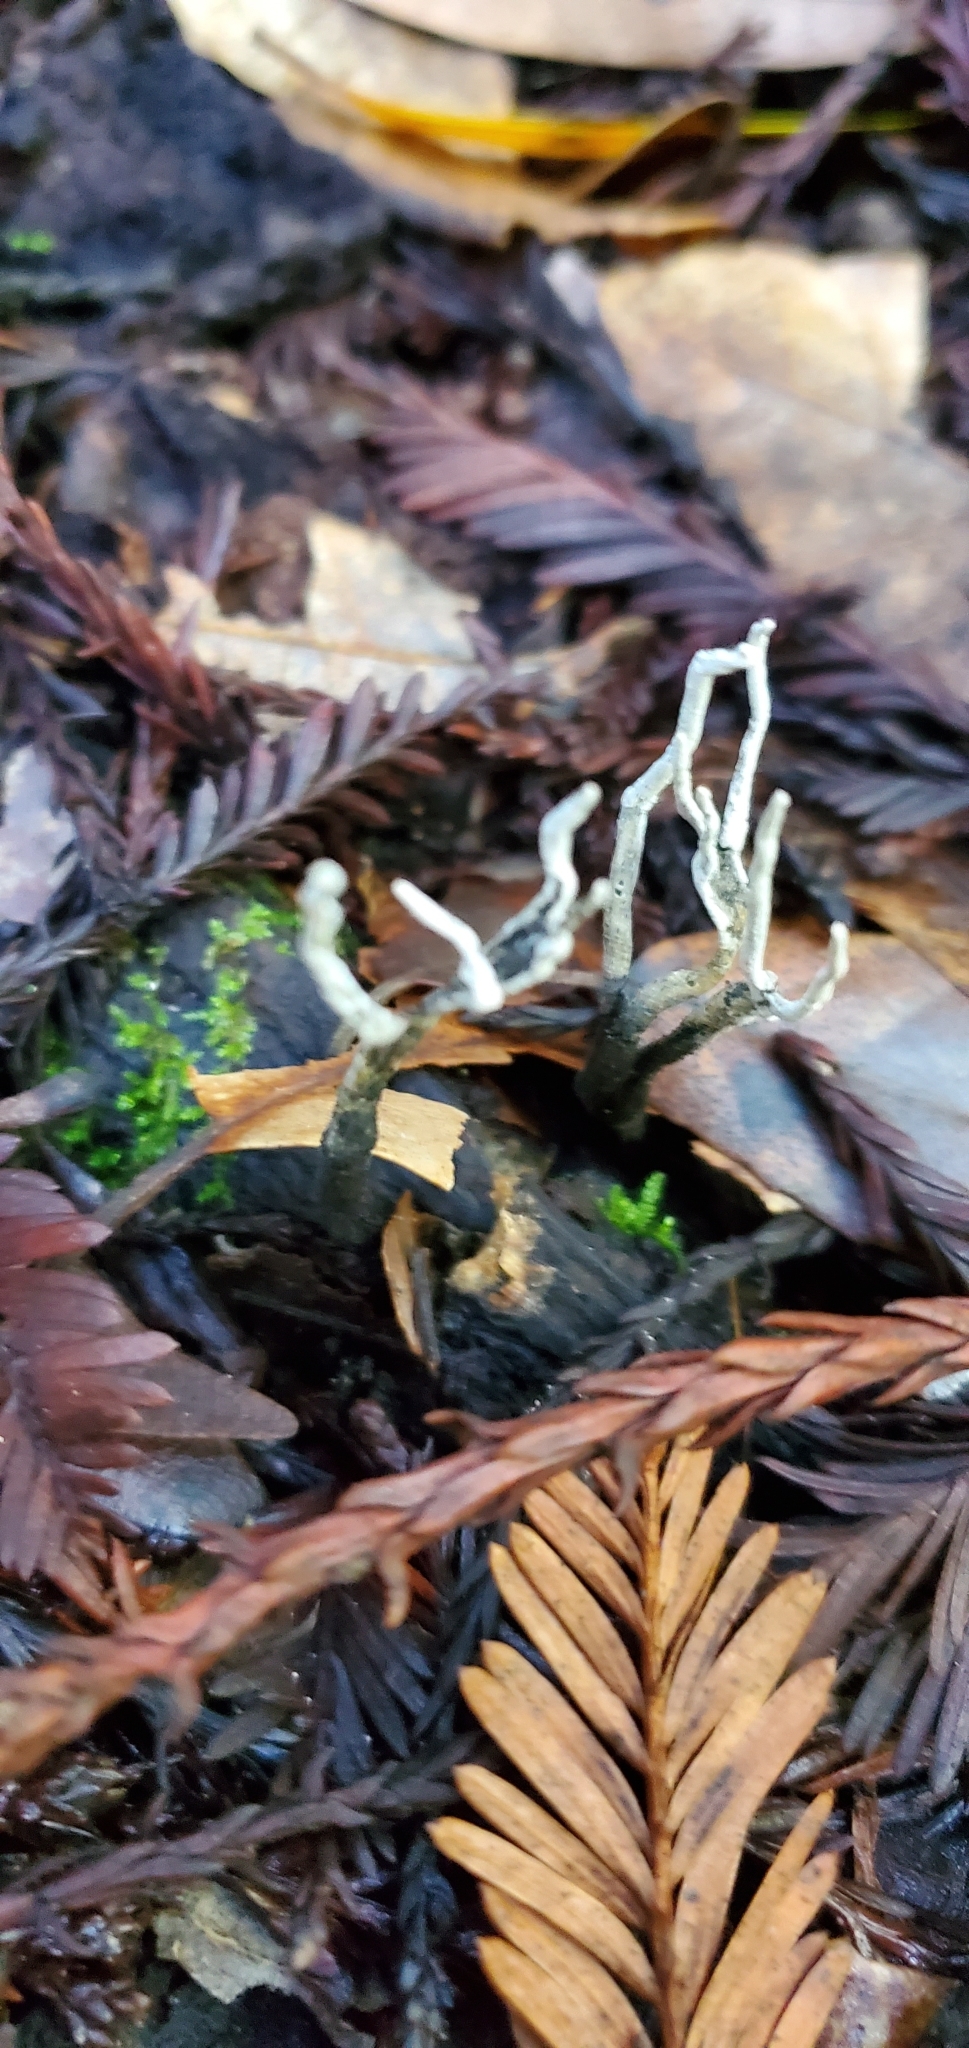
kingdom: Fungi
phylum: Ascomycota
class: Sordariomycetes
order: Xylariales
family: Xylariaceae
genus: Xylaria
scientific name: Xylaria hypoxylon
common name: Candle-snuff fungus
